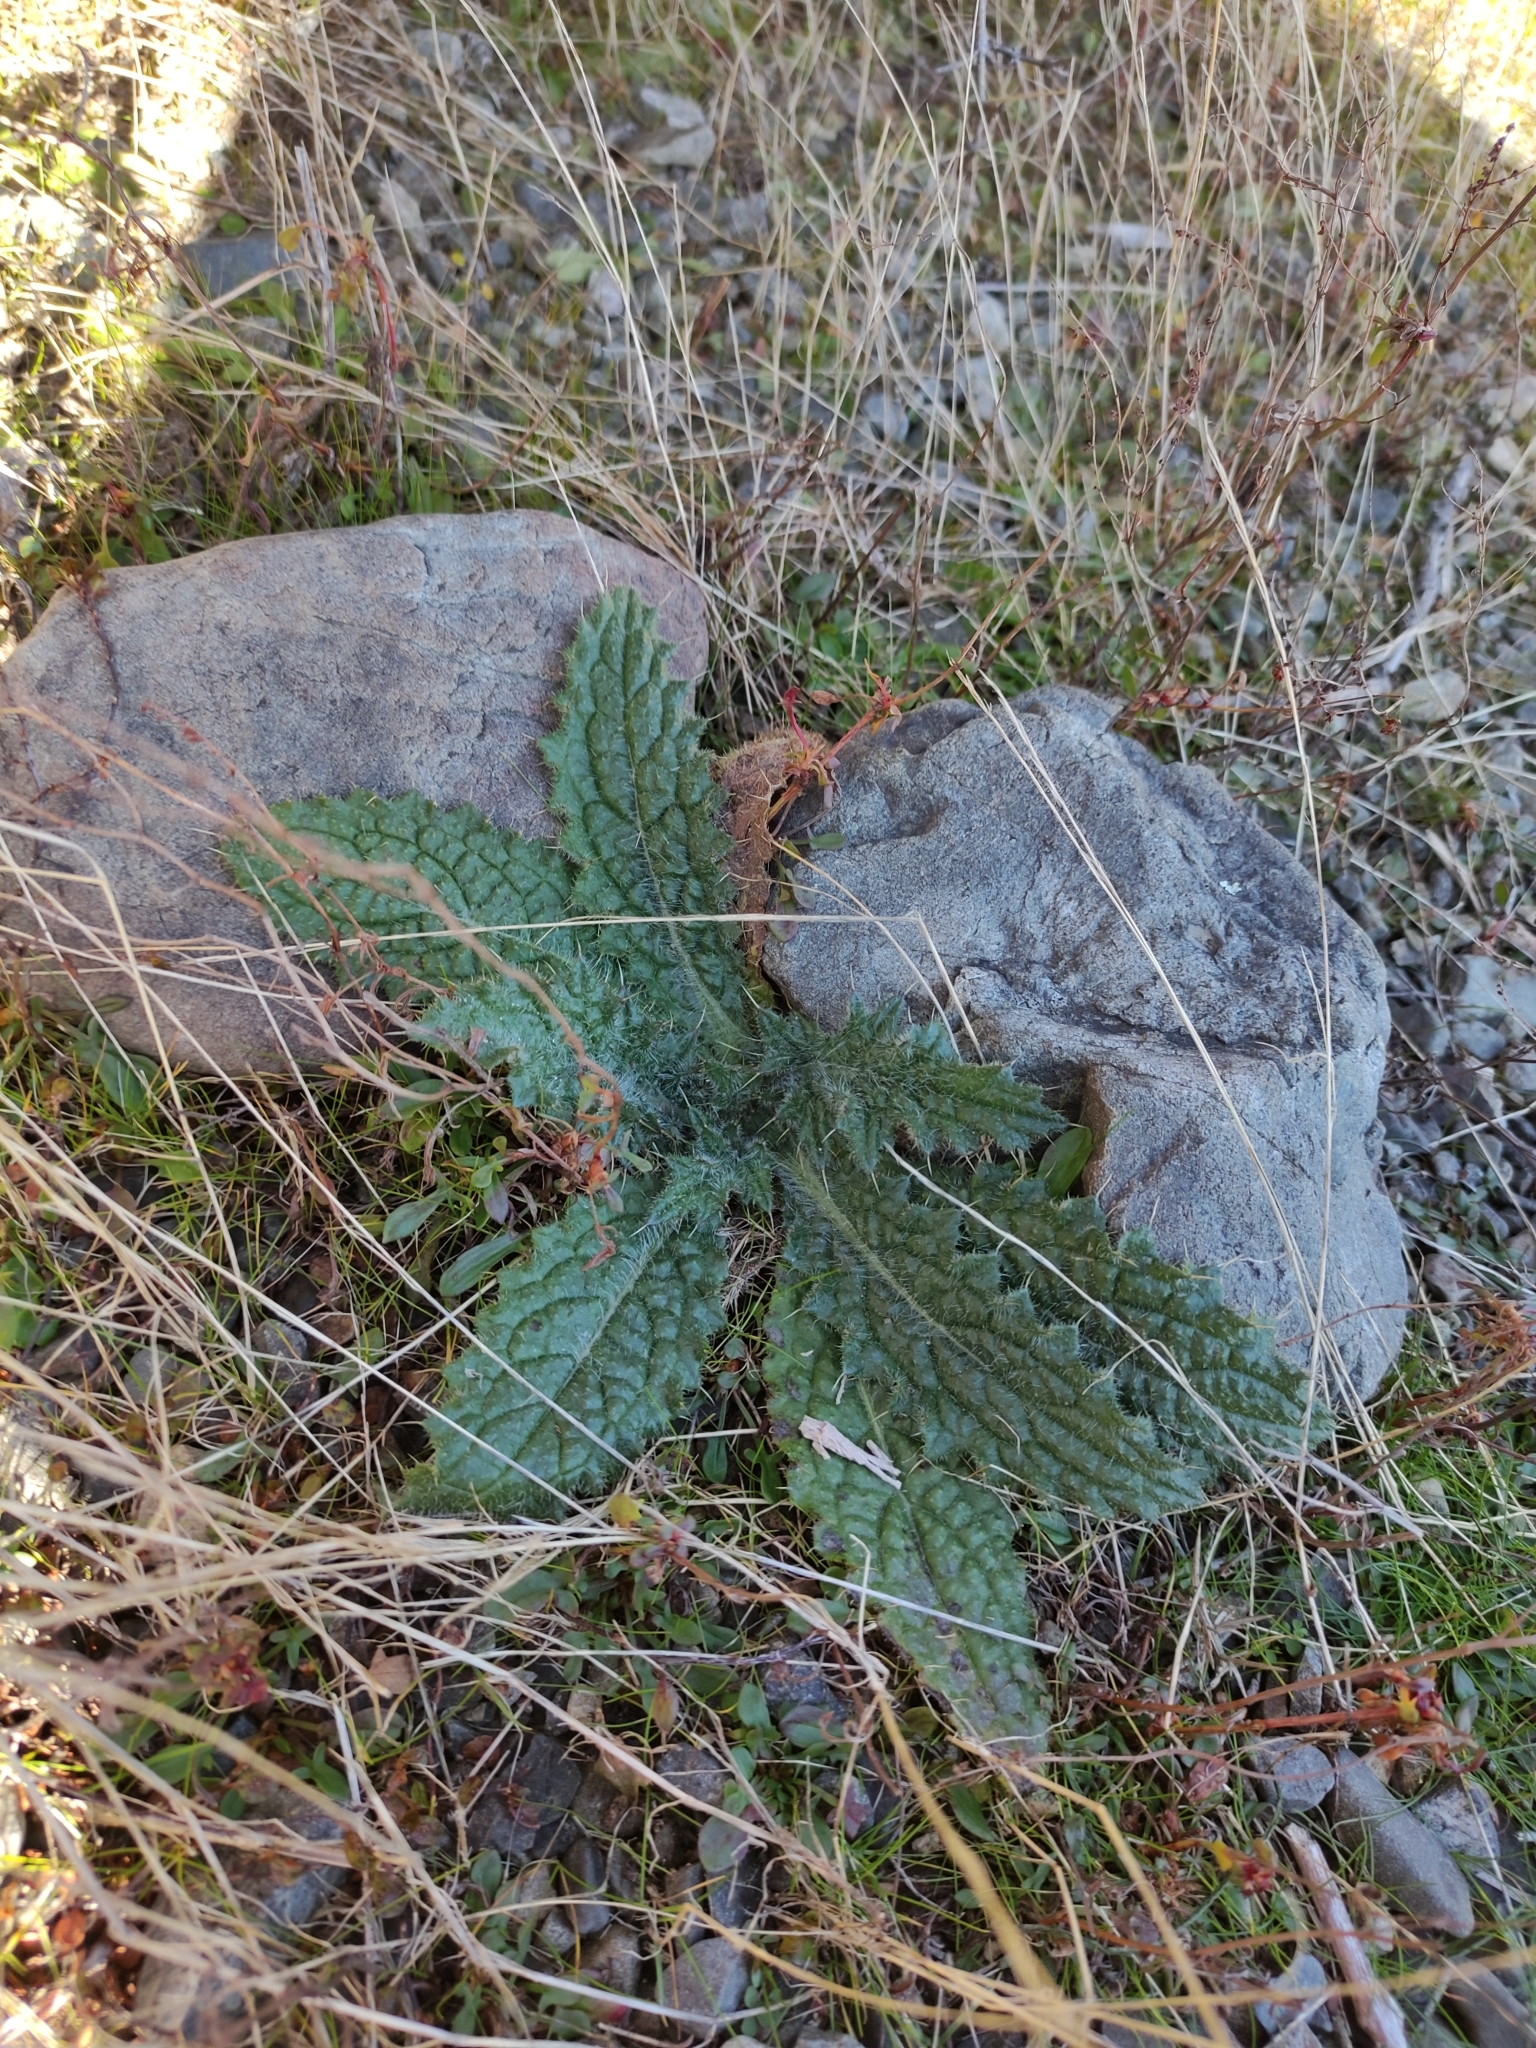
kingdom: Plantae
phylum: Tracheophyta
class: Magnoliopsida
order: Asterales
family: Asteraceae
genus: Cirsium
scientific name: Cirsium vulgare
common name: Bull thistle
